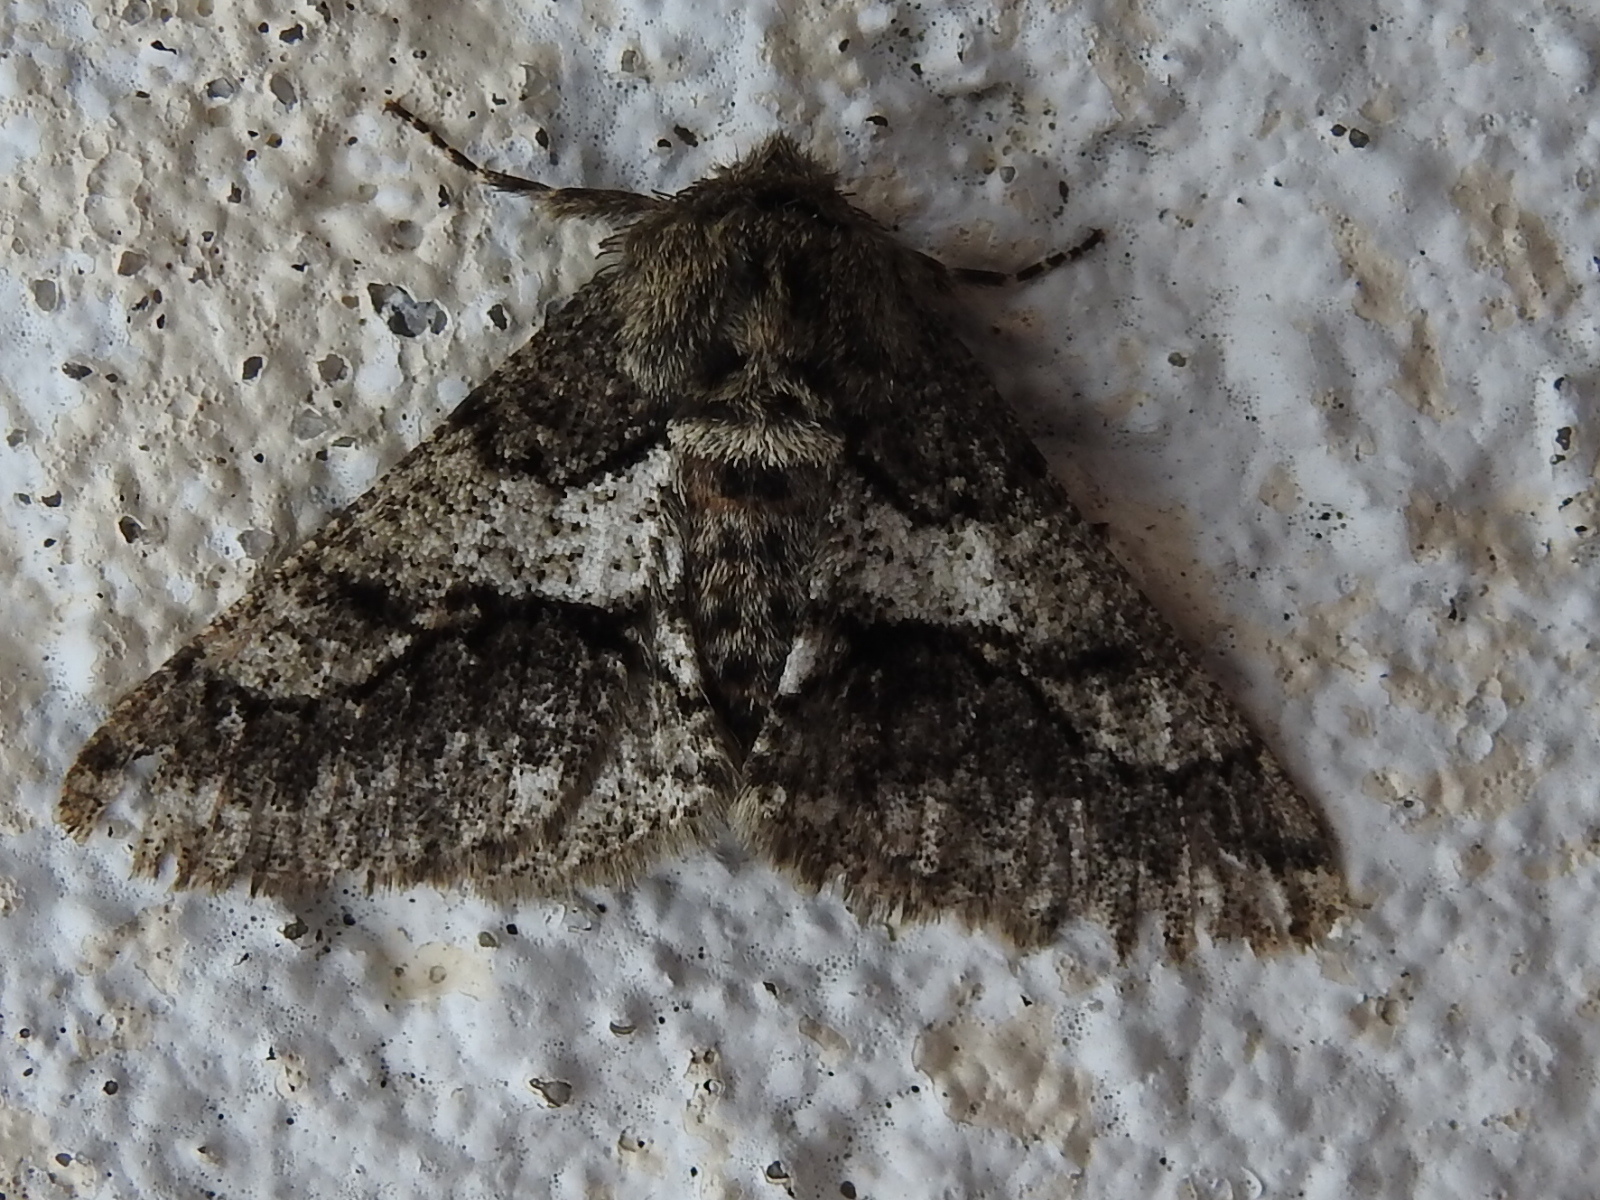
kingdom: Animalia
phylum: Arthropoda
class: Insecta
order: Lepidoptera
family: Geometridae
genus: Lycia
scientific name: Lycia ypsilon
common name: Wooly gray
